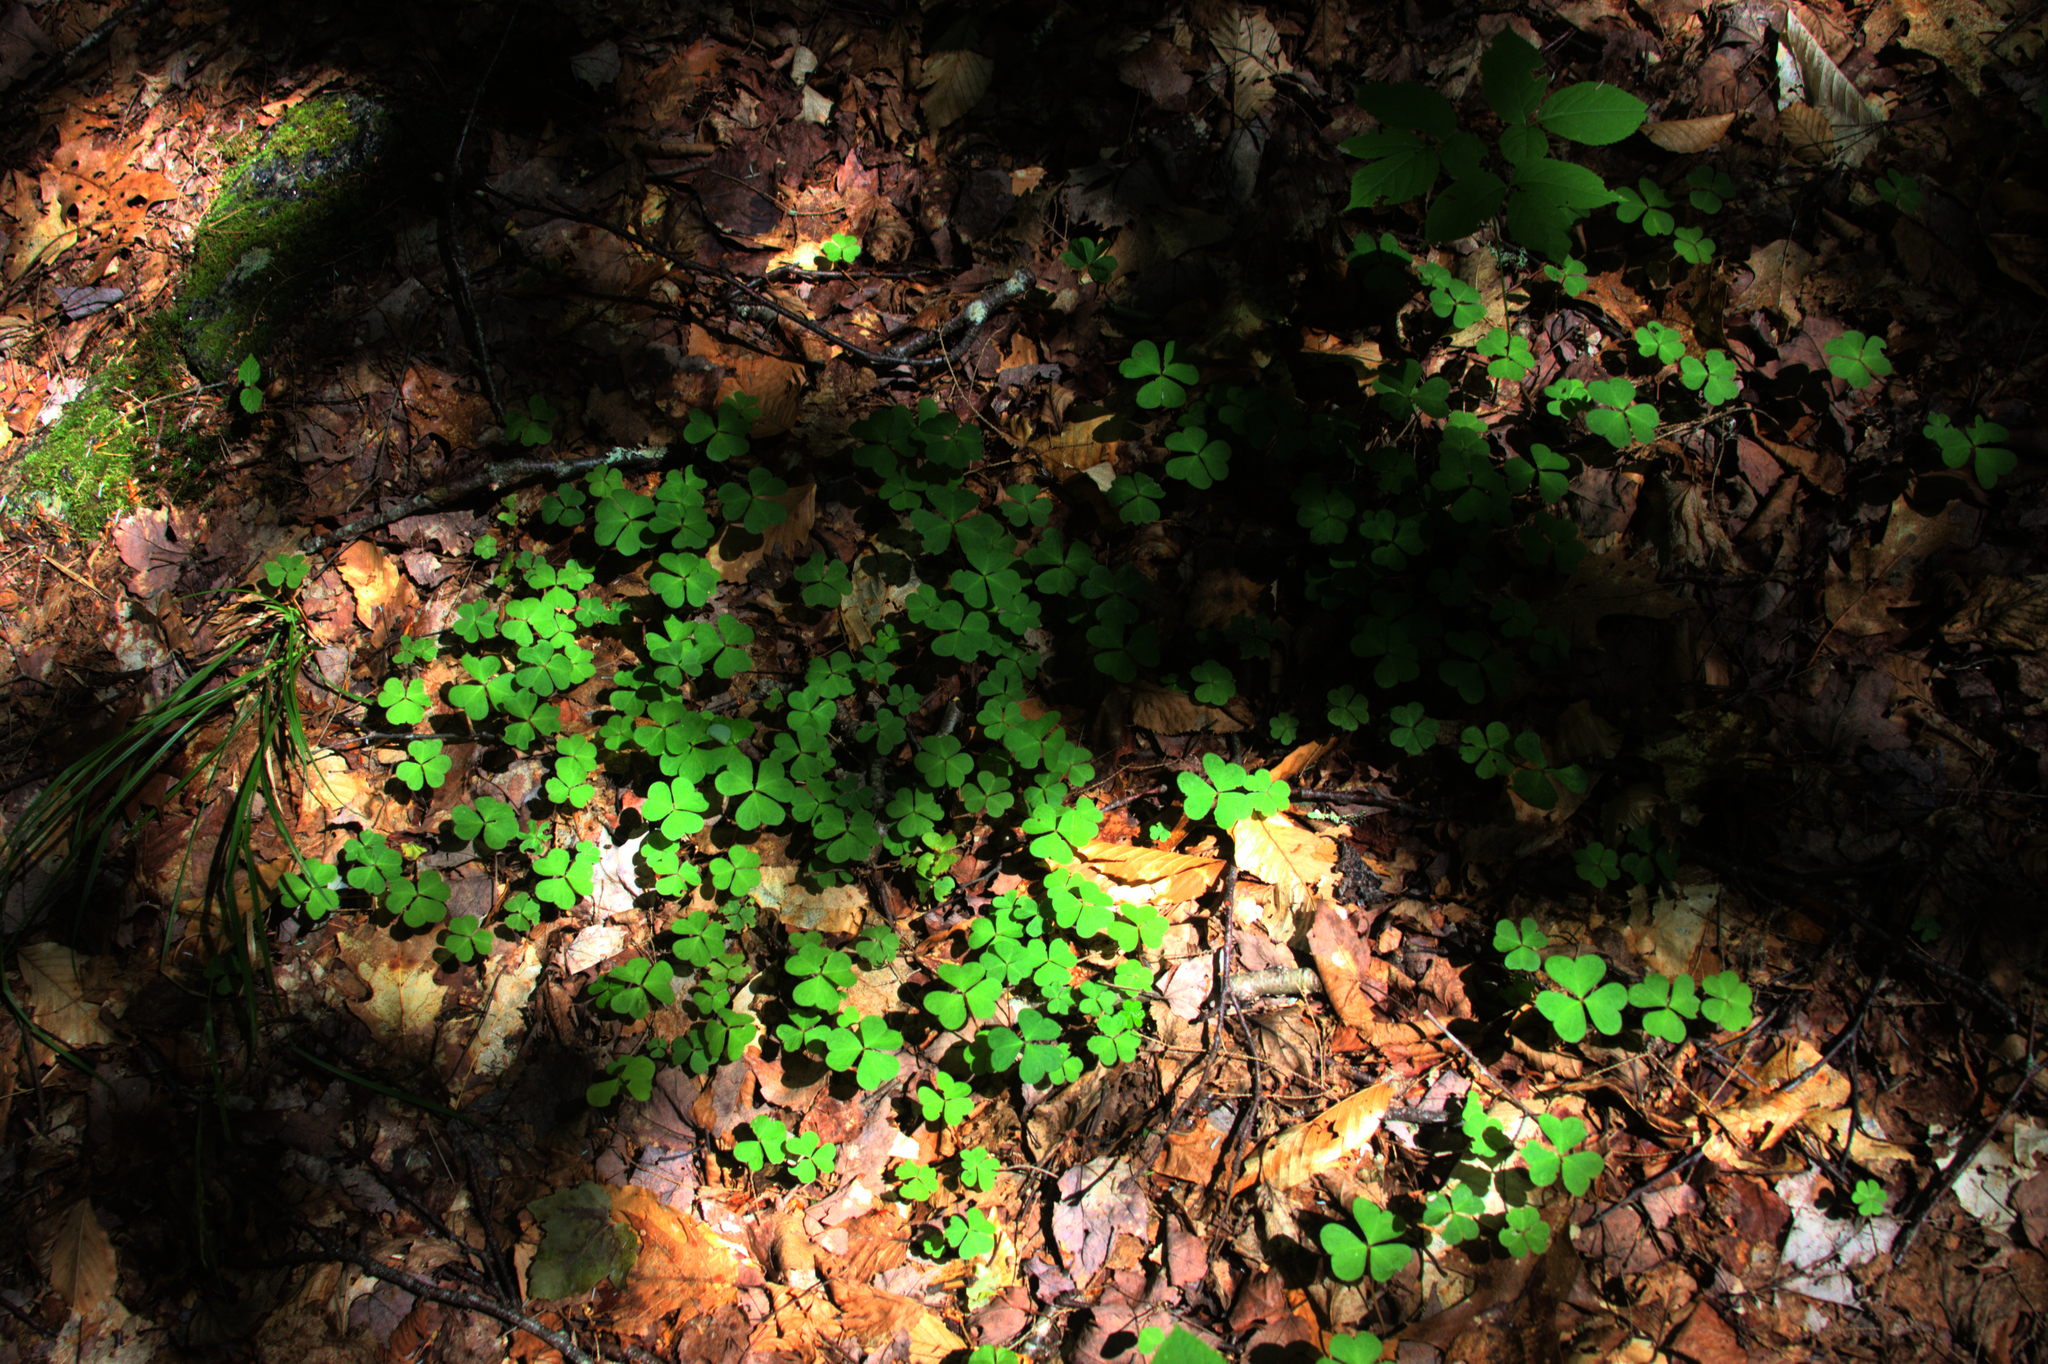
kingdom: Plantae
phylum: Tracheophyta
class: Magnoliopsida
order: Oxalidales
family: Oxalidaceae
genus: Oxalis
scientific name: Oxalis montana
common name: American wood-sorrel
